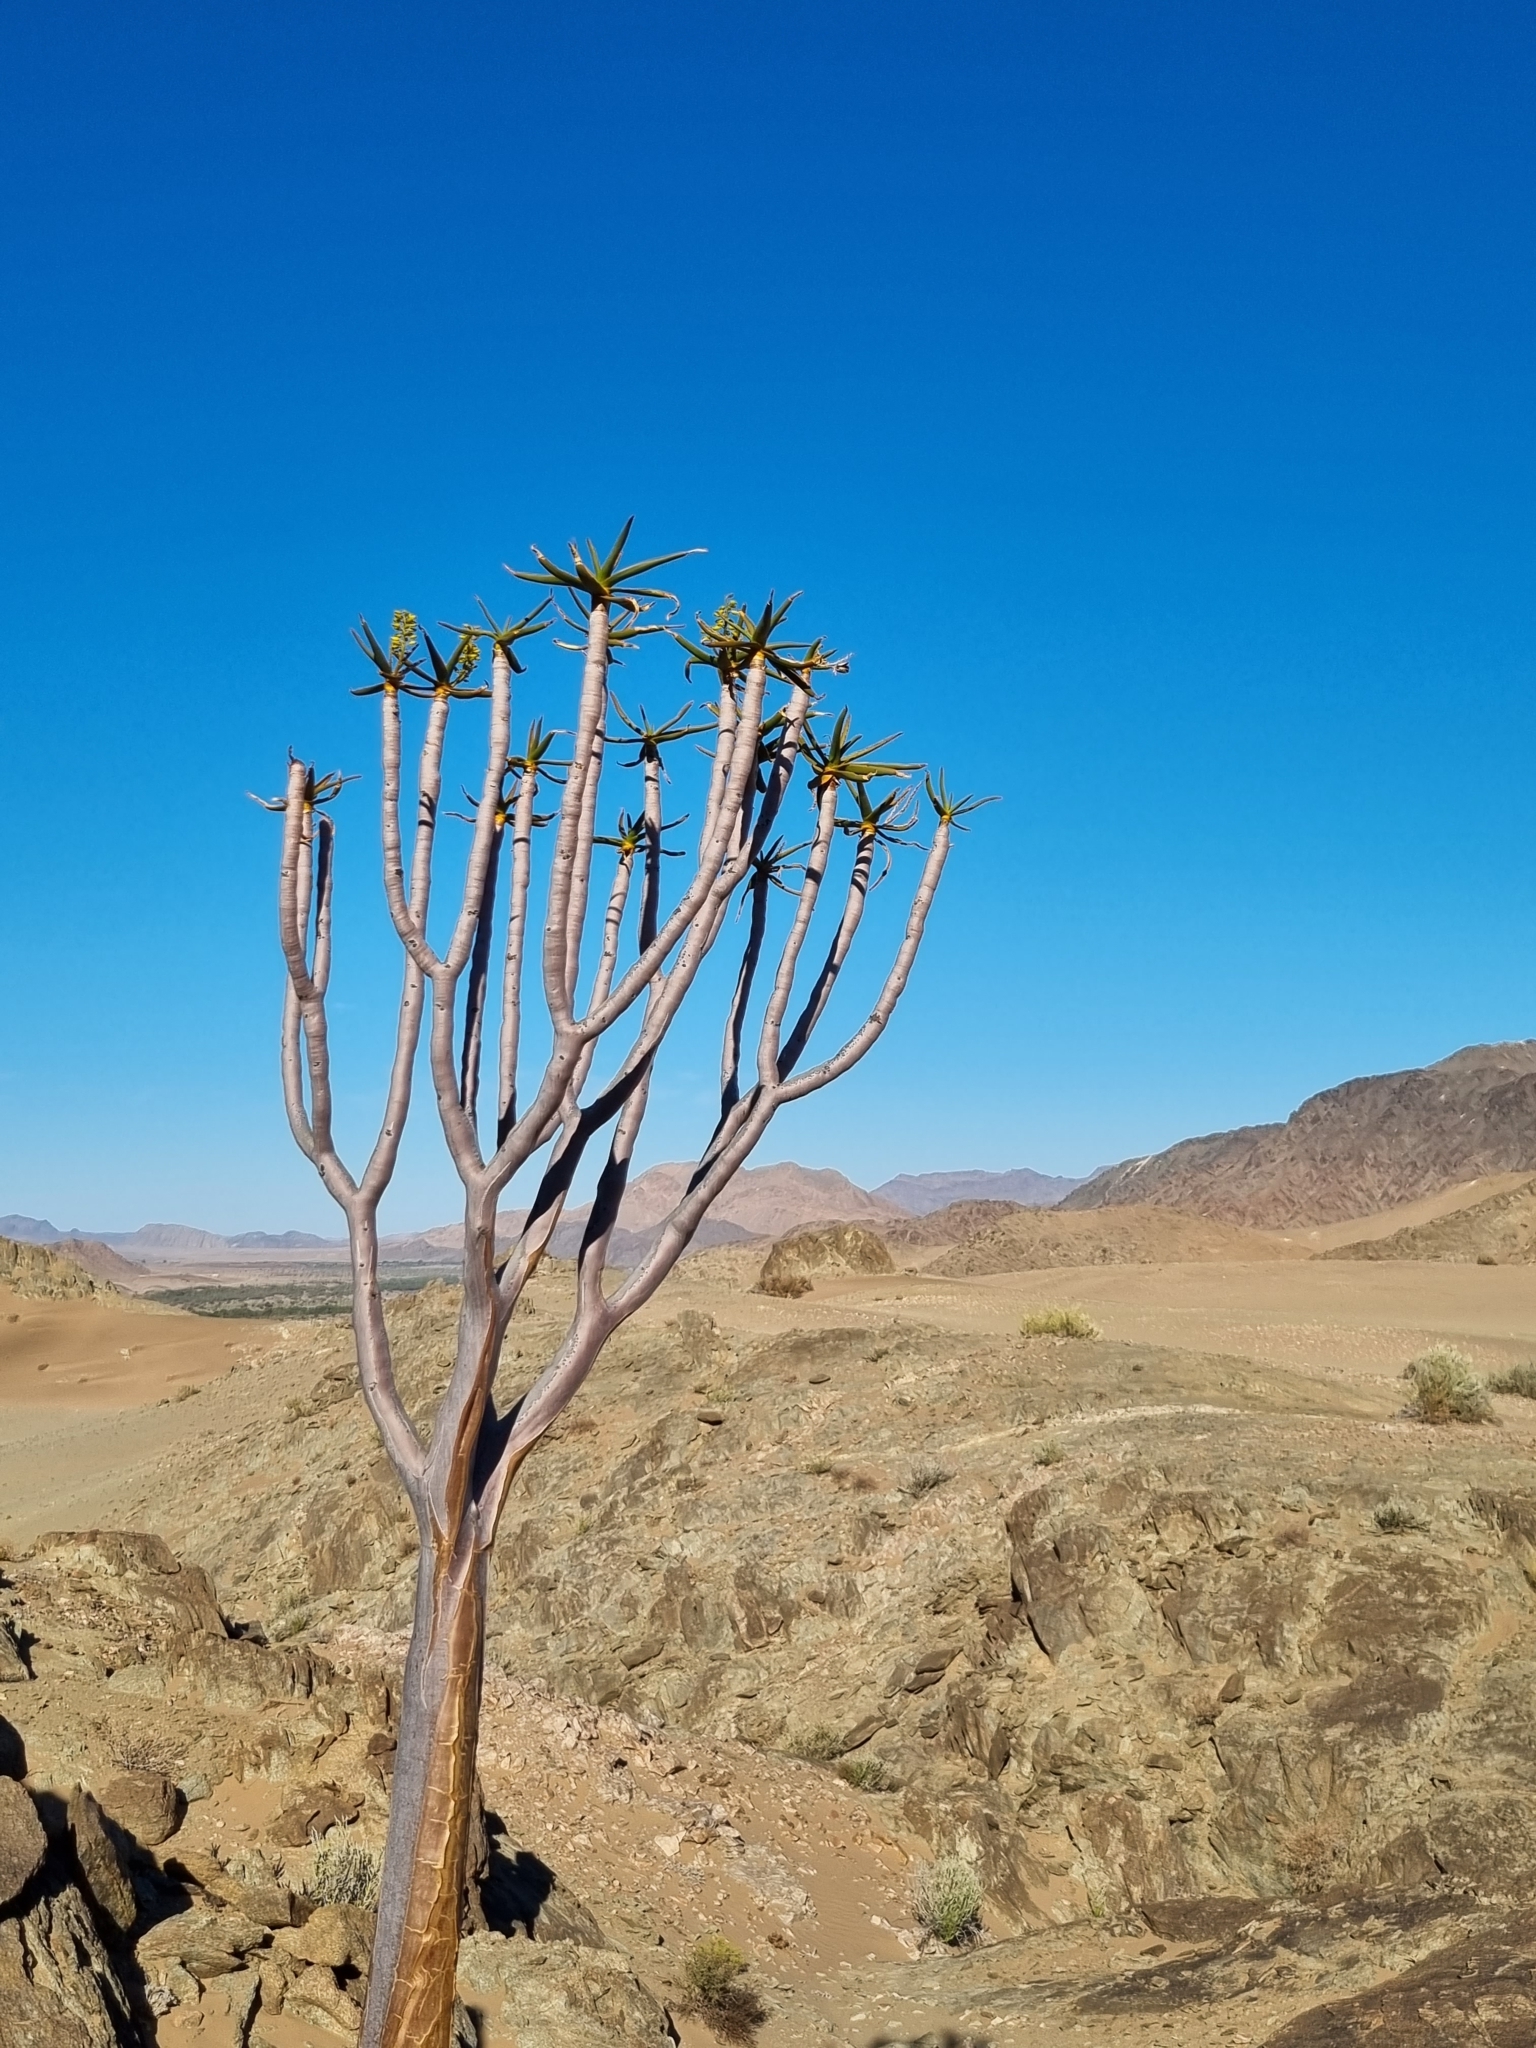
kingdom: Plantae
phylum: Tracheophyta
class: Liliopsida
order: Asparagales
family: Asphodelaceae
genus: Aloidendron
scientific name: Aloidendron dichotomum
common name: Quiver tree
